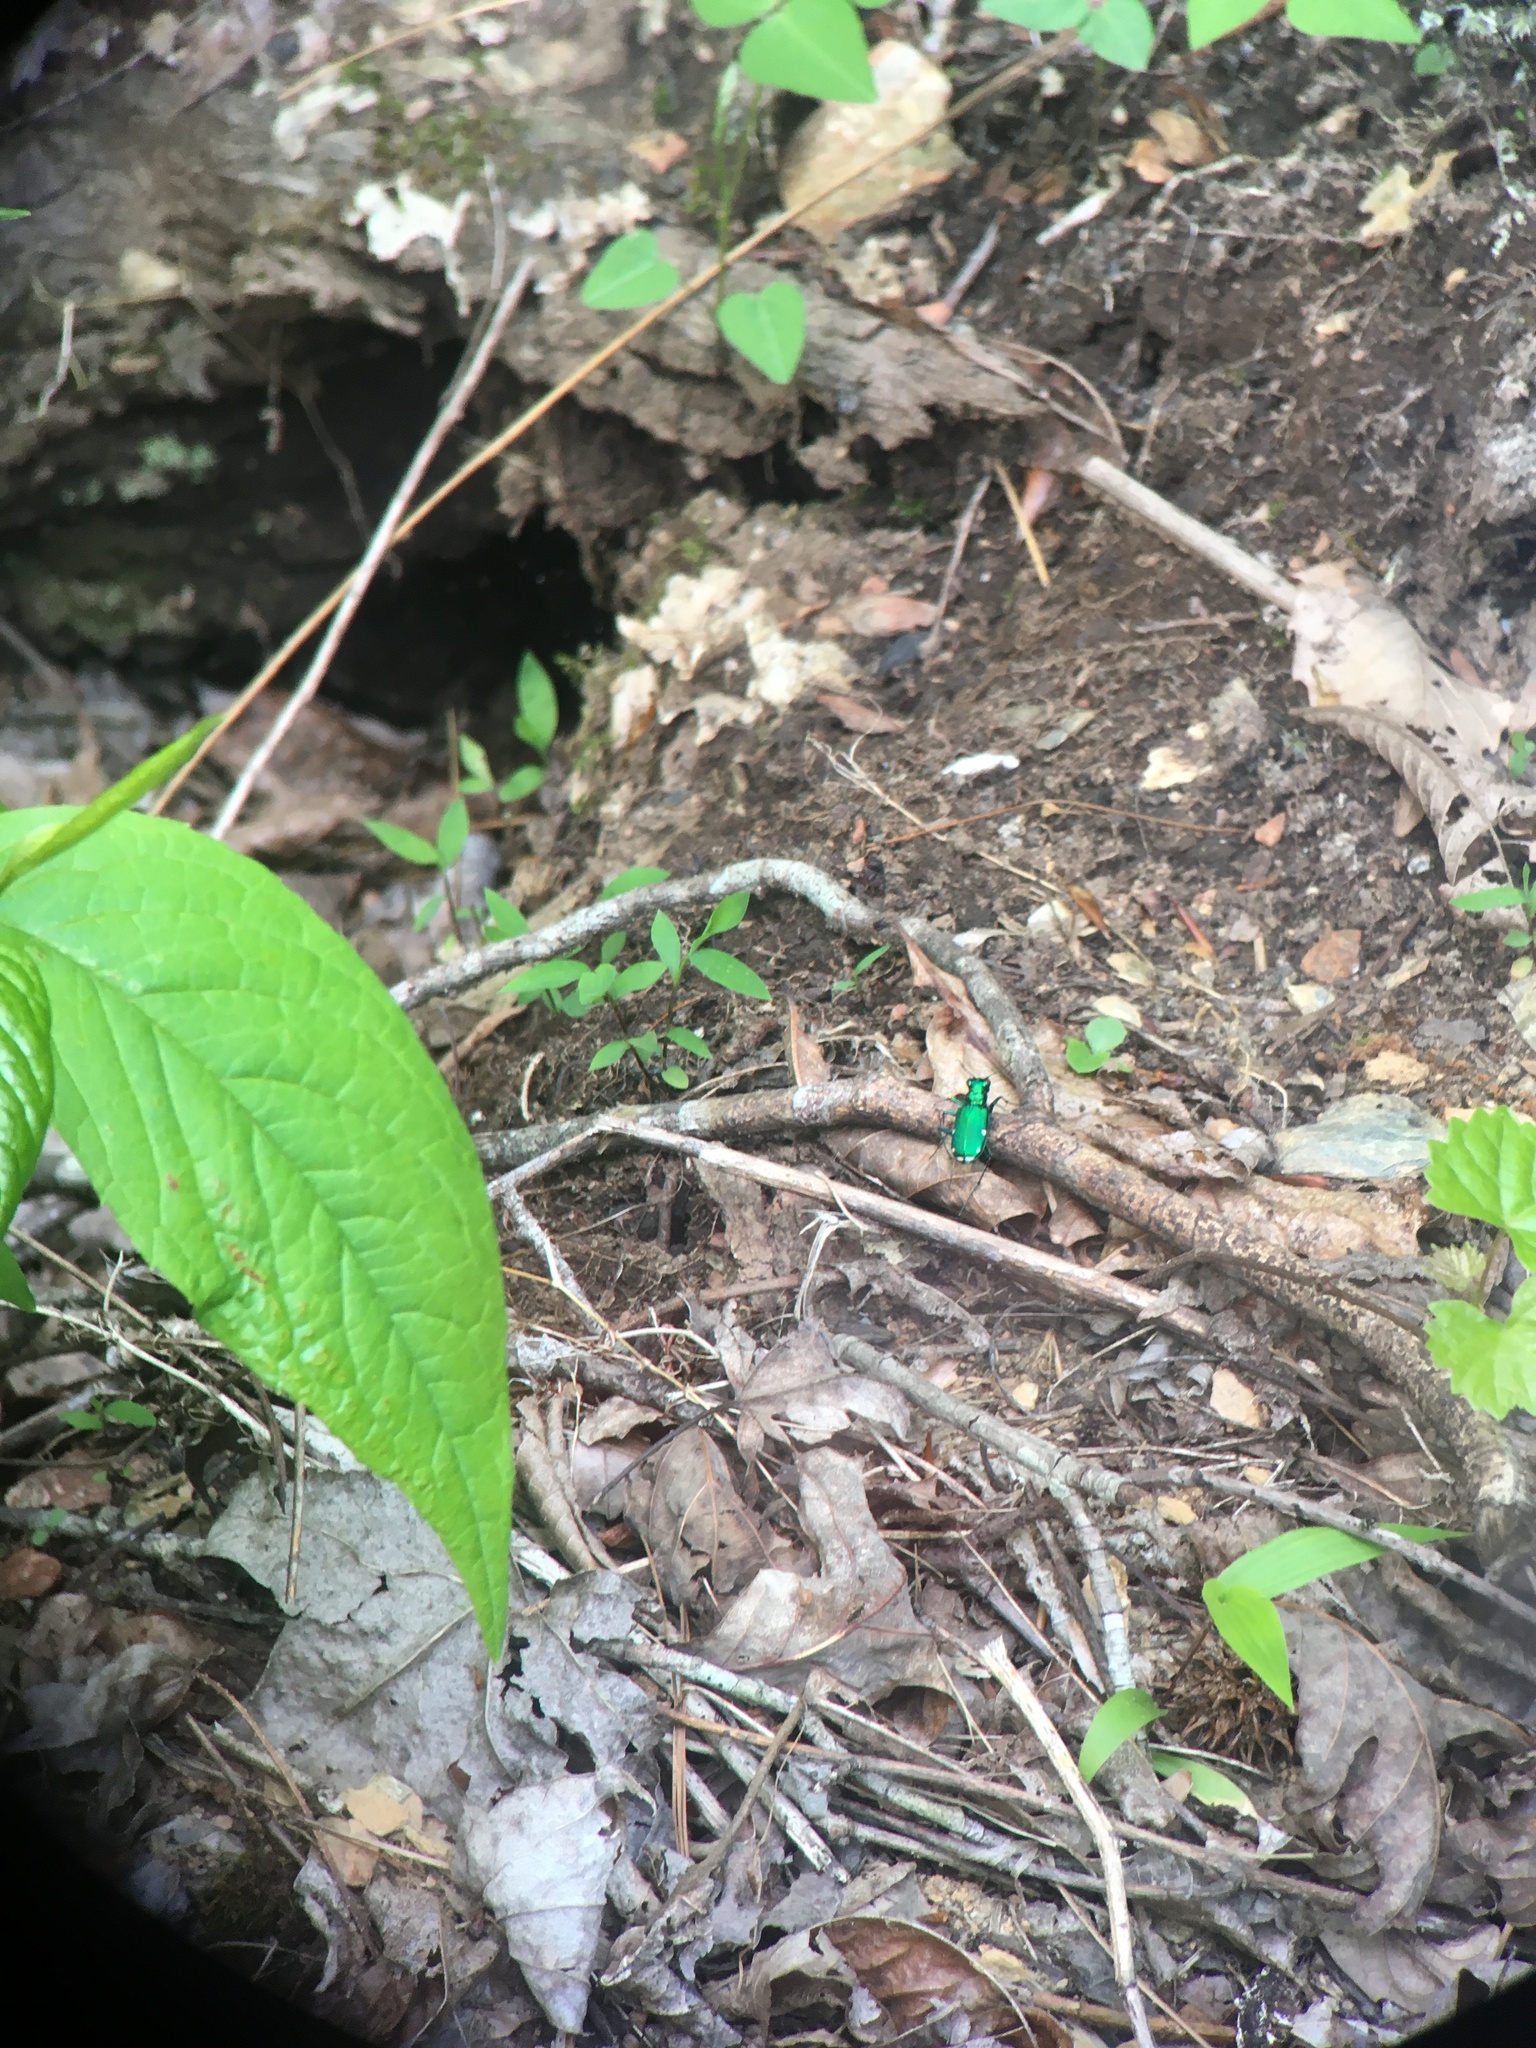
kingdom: Animalia
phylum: Arthropoda
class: Insecta
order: Coleoptera
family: Carabidae
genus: Cicindela
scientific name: Cicindela sexguttata
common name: Six-spotted tiger beetle
